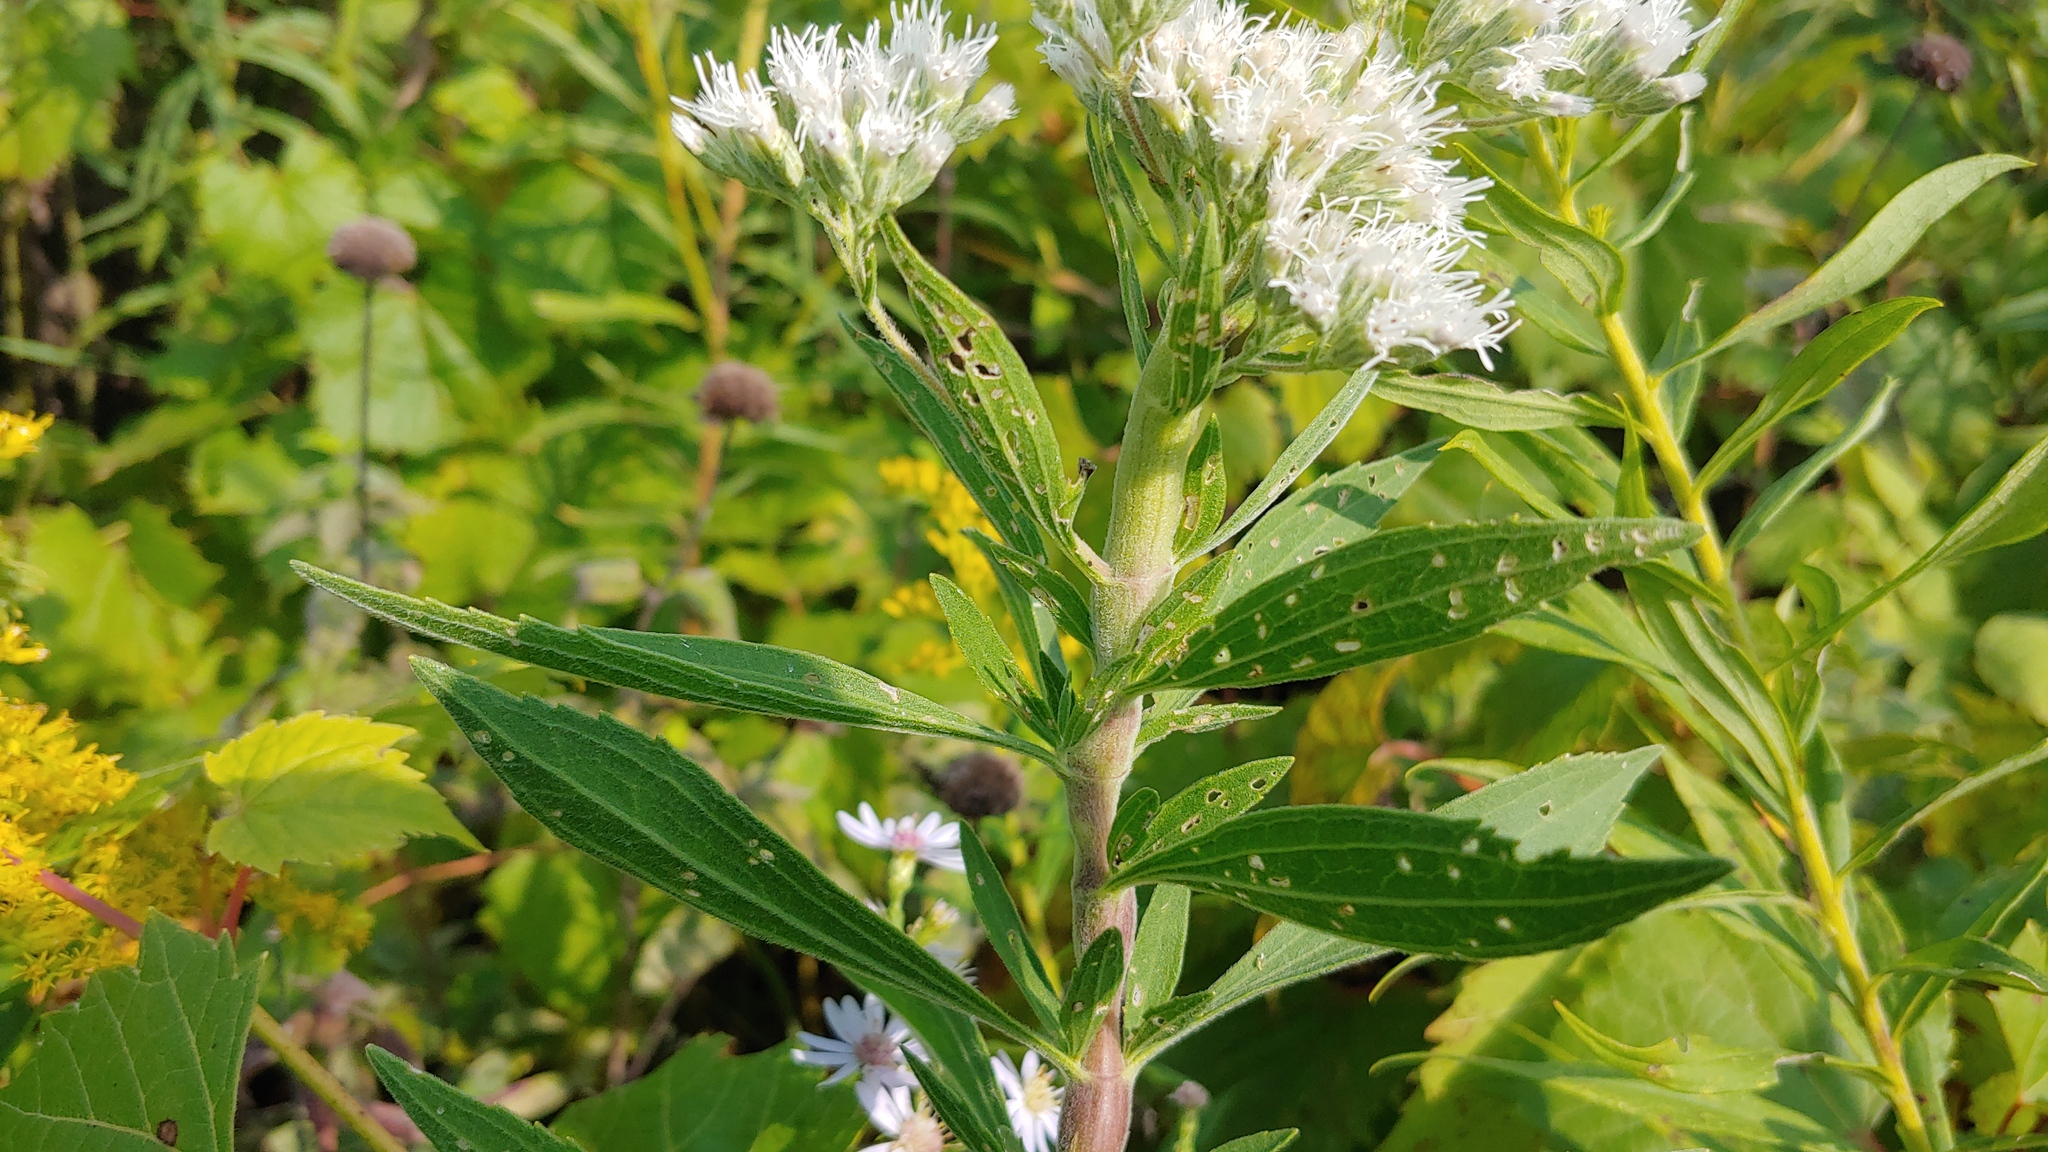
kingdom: Animalia
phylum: Arthropoda
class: Insecta
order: Diptera
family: Cecidomyiidae
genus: Neolasioptera
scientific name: Neolasioptera perfoliata
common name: Boneset stem midge
